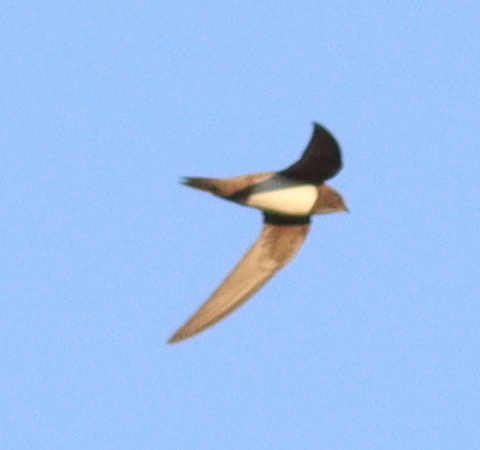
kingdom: Animalia
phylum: Chordata
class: Aves
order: Apodiformes
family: Apodidae
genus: Tachymarptis
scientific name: Tachymarptis melba
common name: Alpine swift
